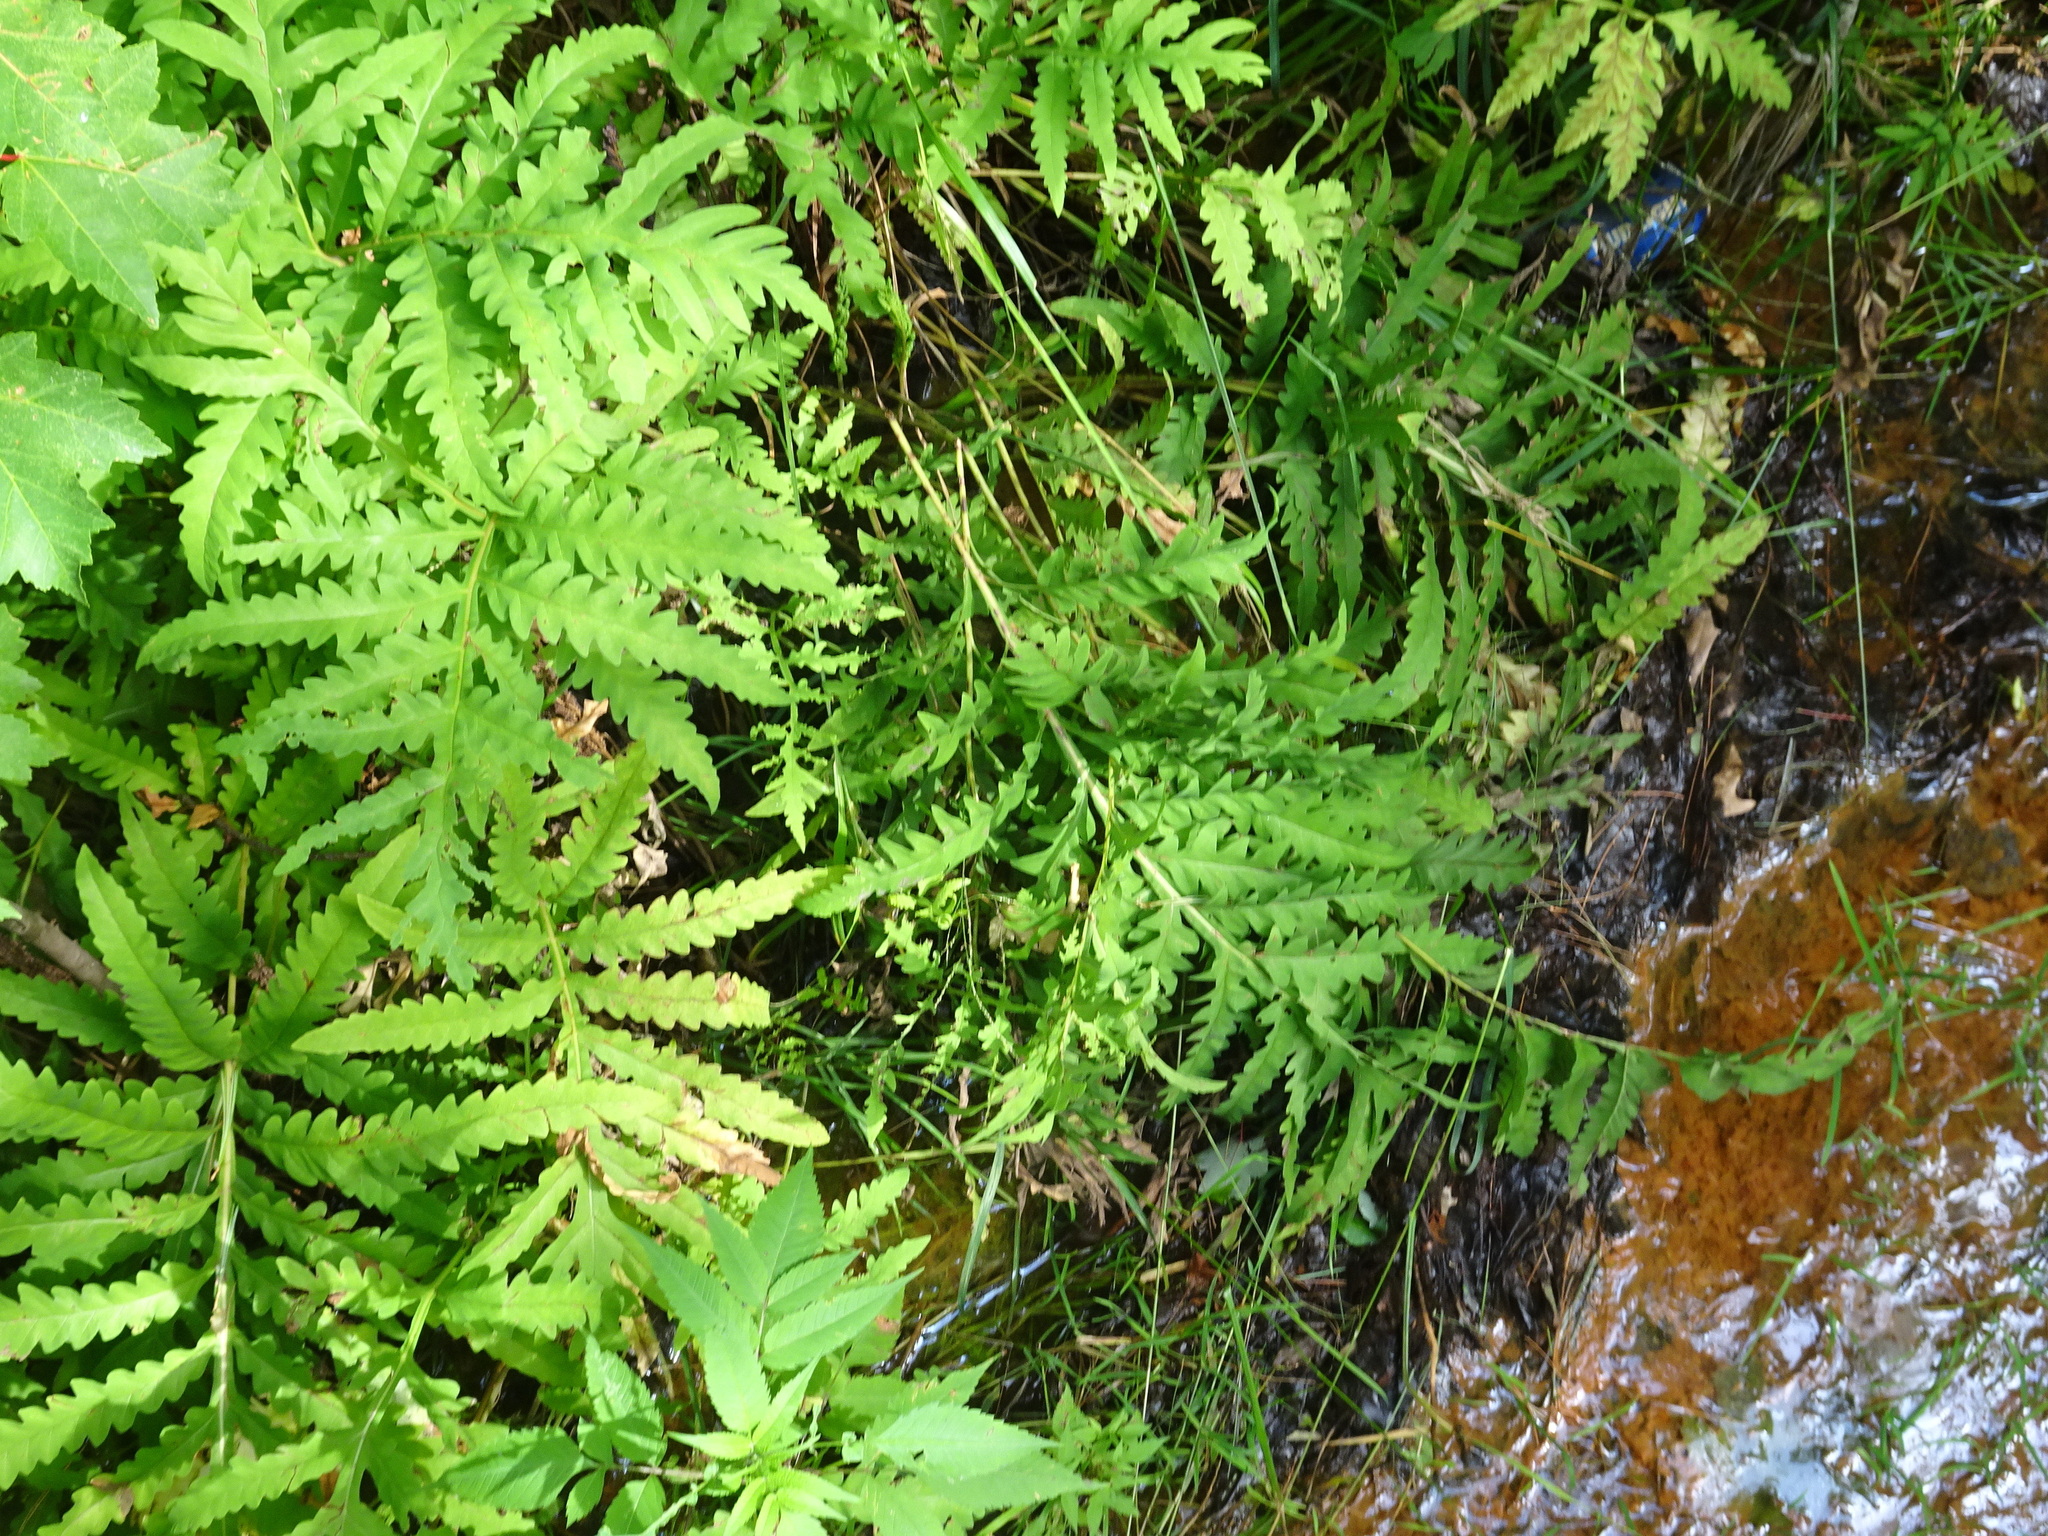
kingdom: Plantae
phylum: Tracheophyta
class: Polypodiopsida
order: Polypodiales
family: Onocleaceae
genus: Onoclea
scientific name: Onoclea sensibilis
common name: Sensitive fern
